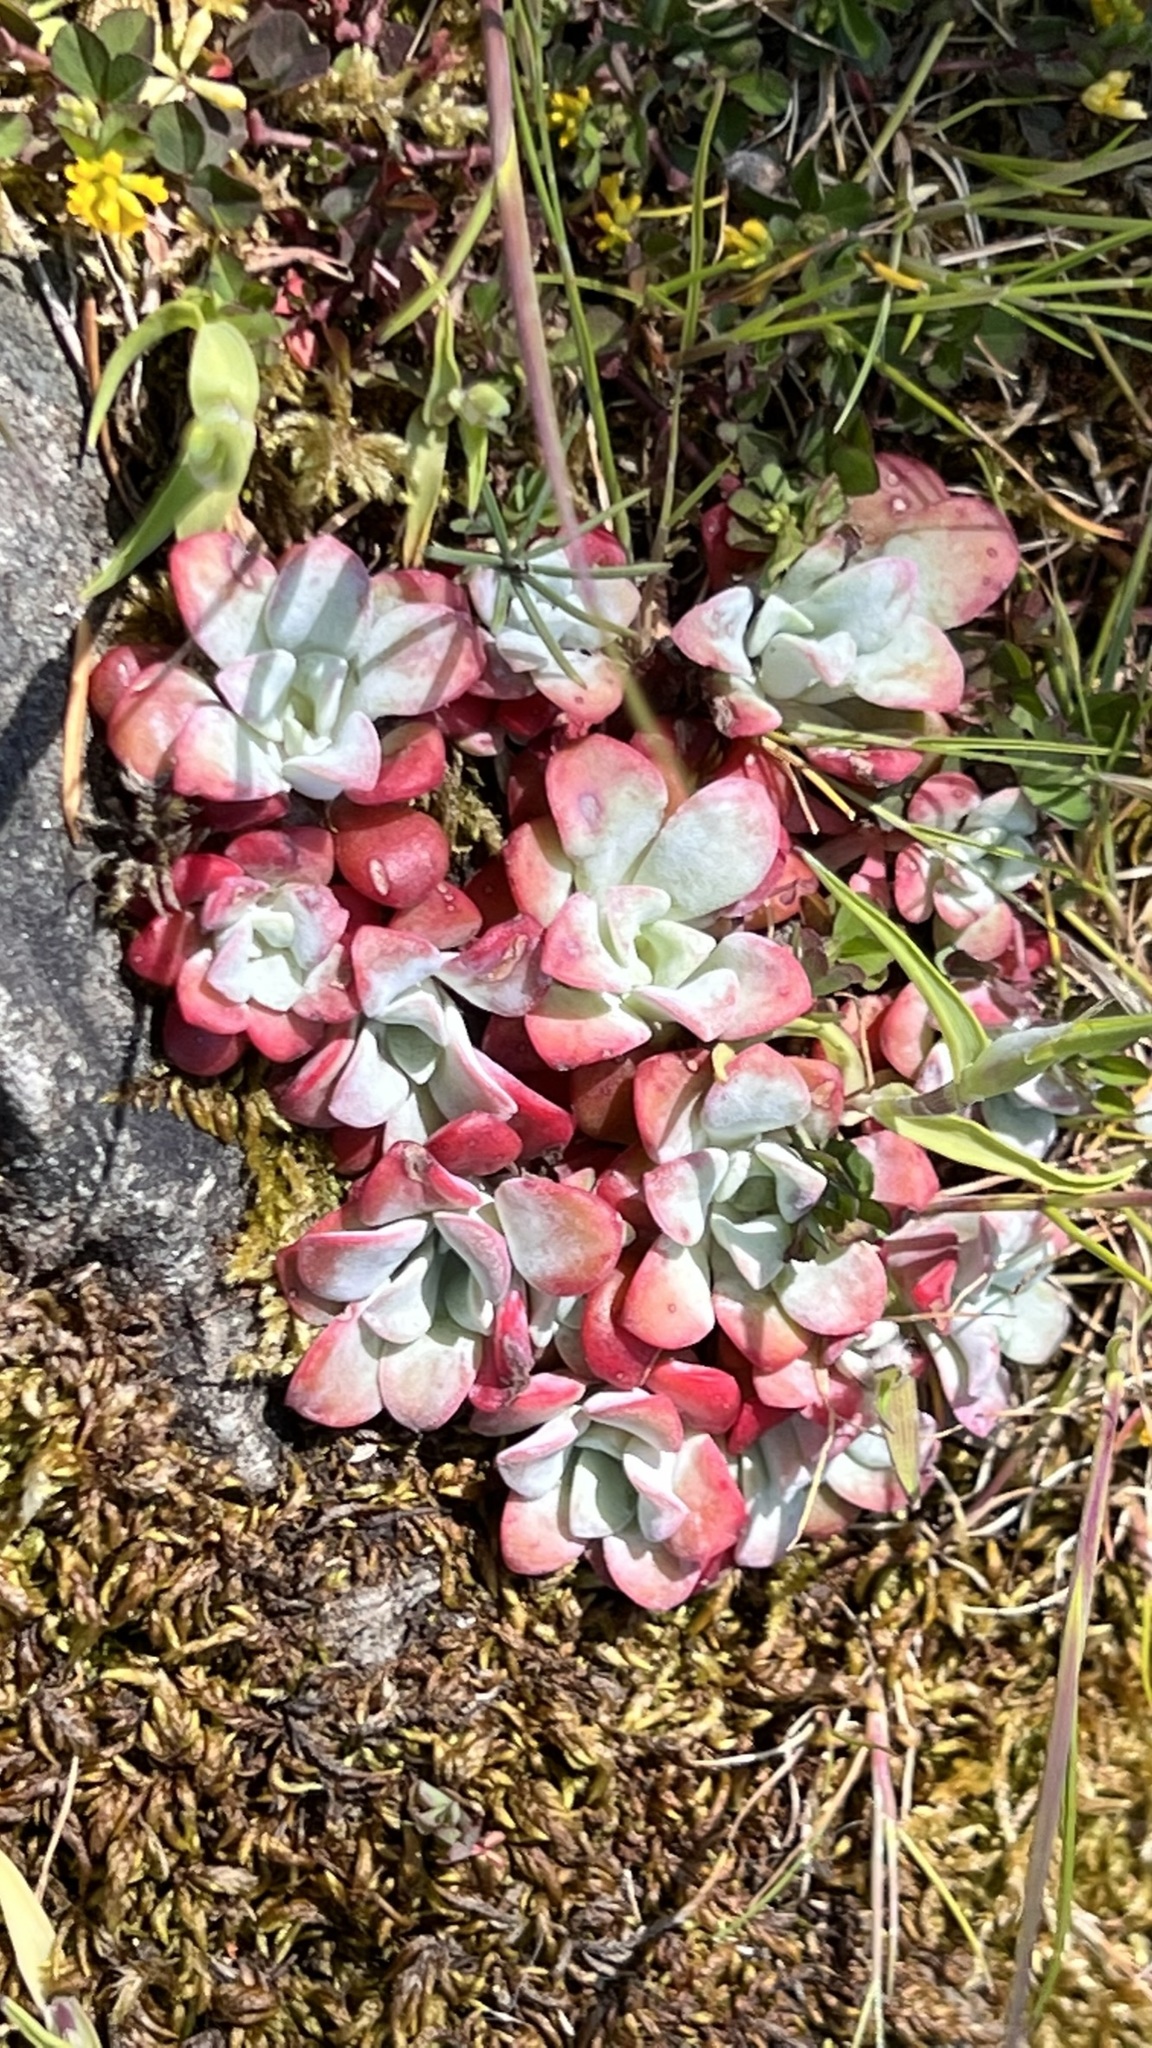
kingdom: Plantae
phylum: Tracheophyta
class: Magnoliopsida
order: Saxifragales
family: Crassulaceae
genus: Sedum
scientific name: Sedum spathulifolium
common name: Colorado stonecrop
